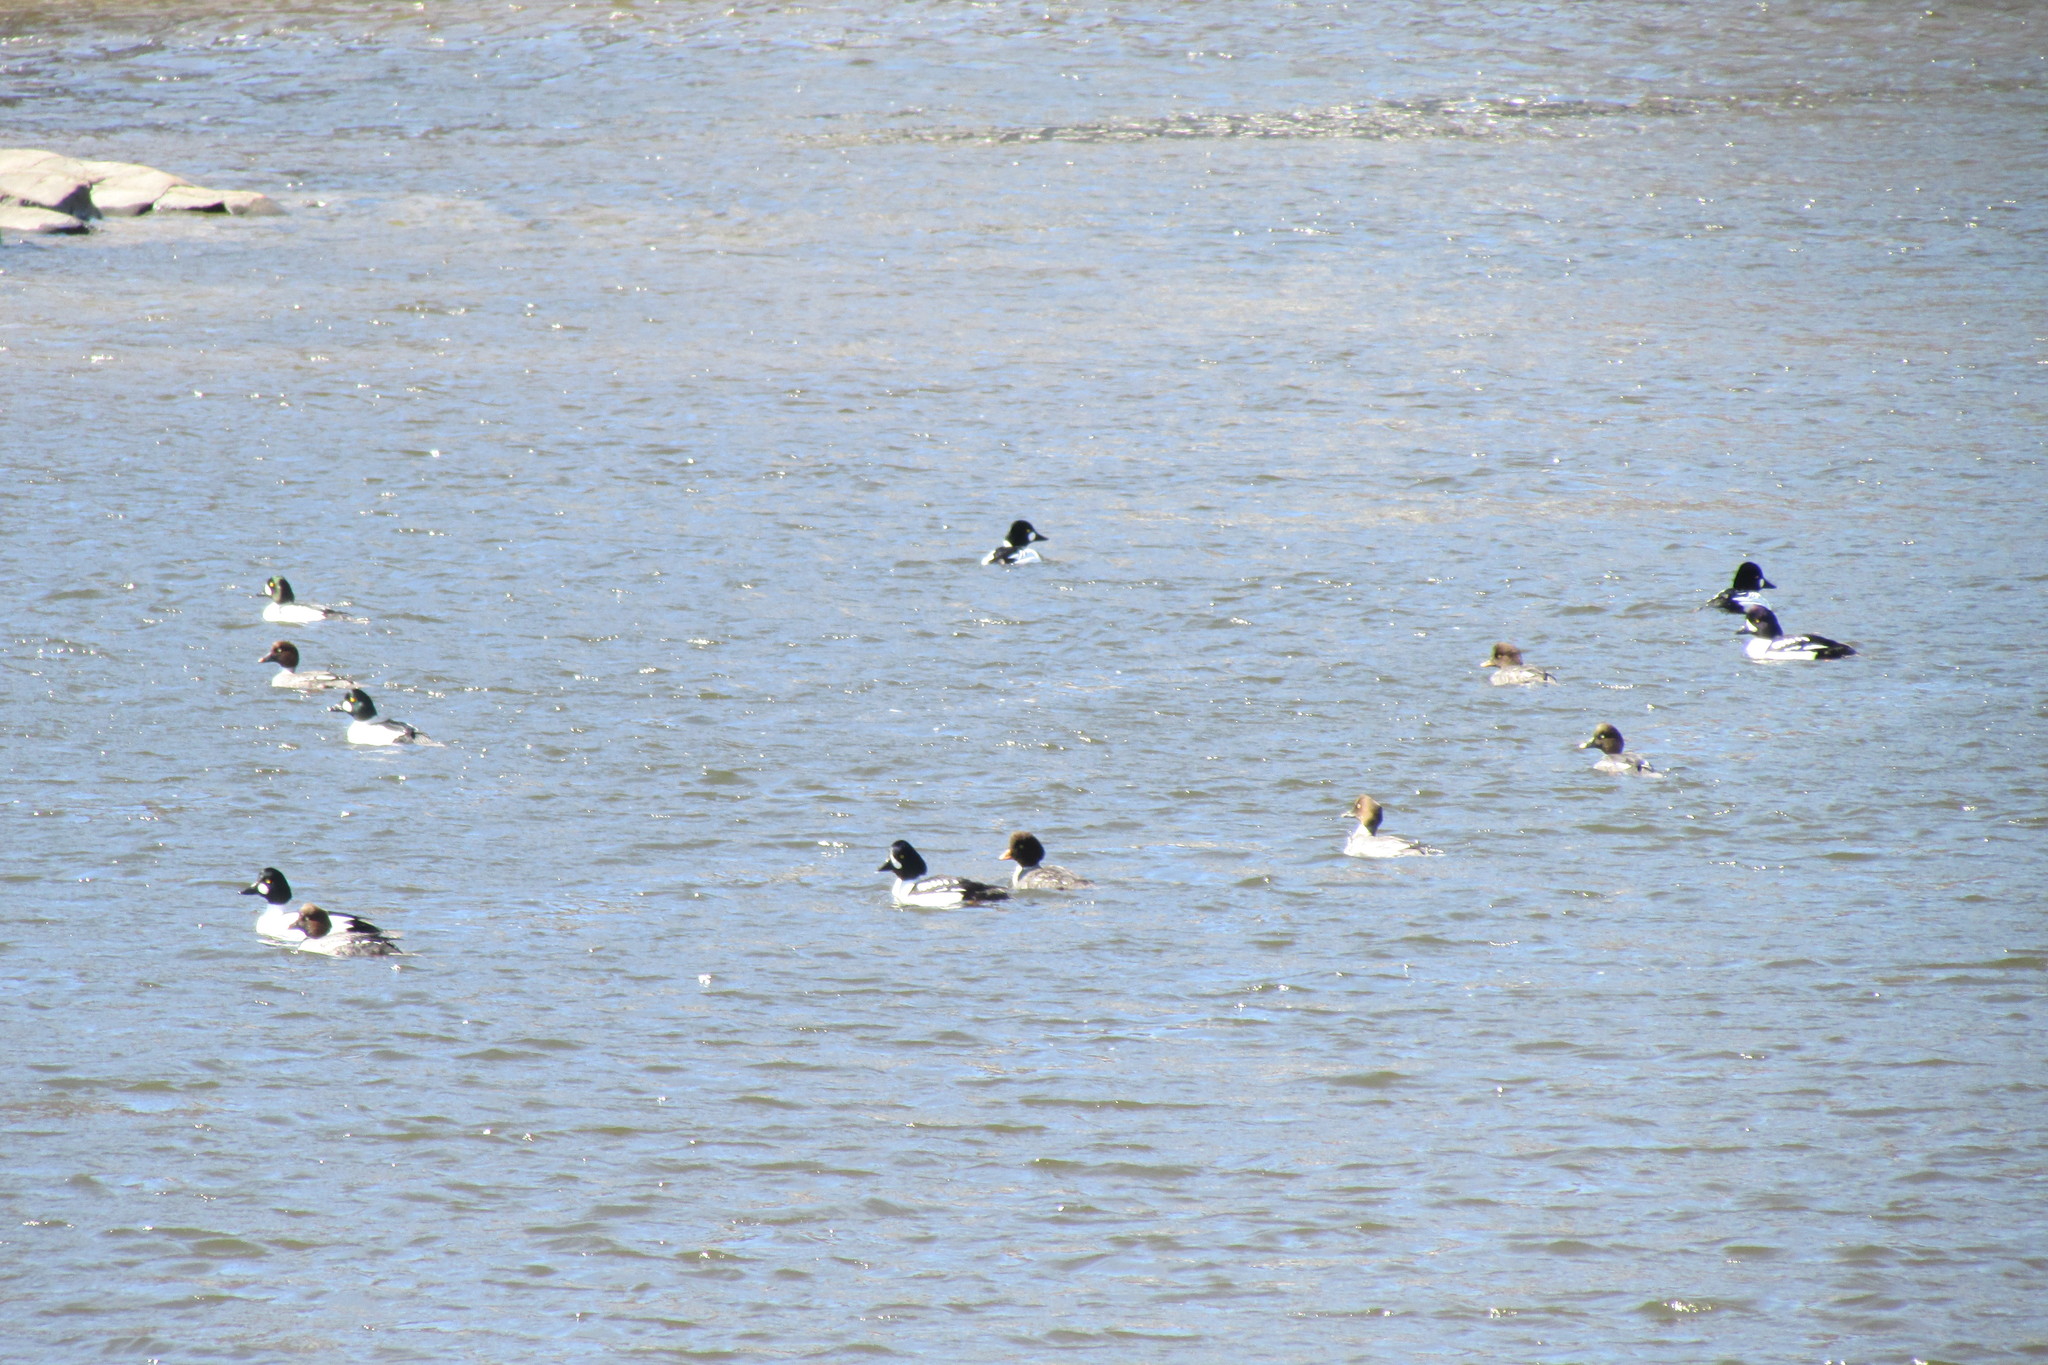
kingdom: Animalia
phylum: Chordata
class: Aves
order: Anseriformes
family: Anatidae
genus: Bucephala
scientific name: Bucephala clangula
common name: Common goldeneye
